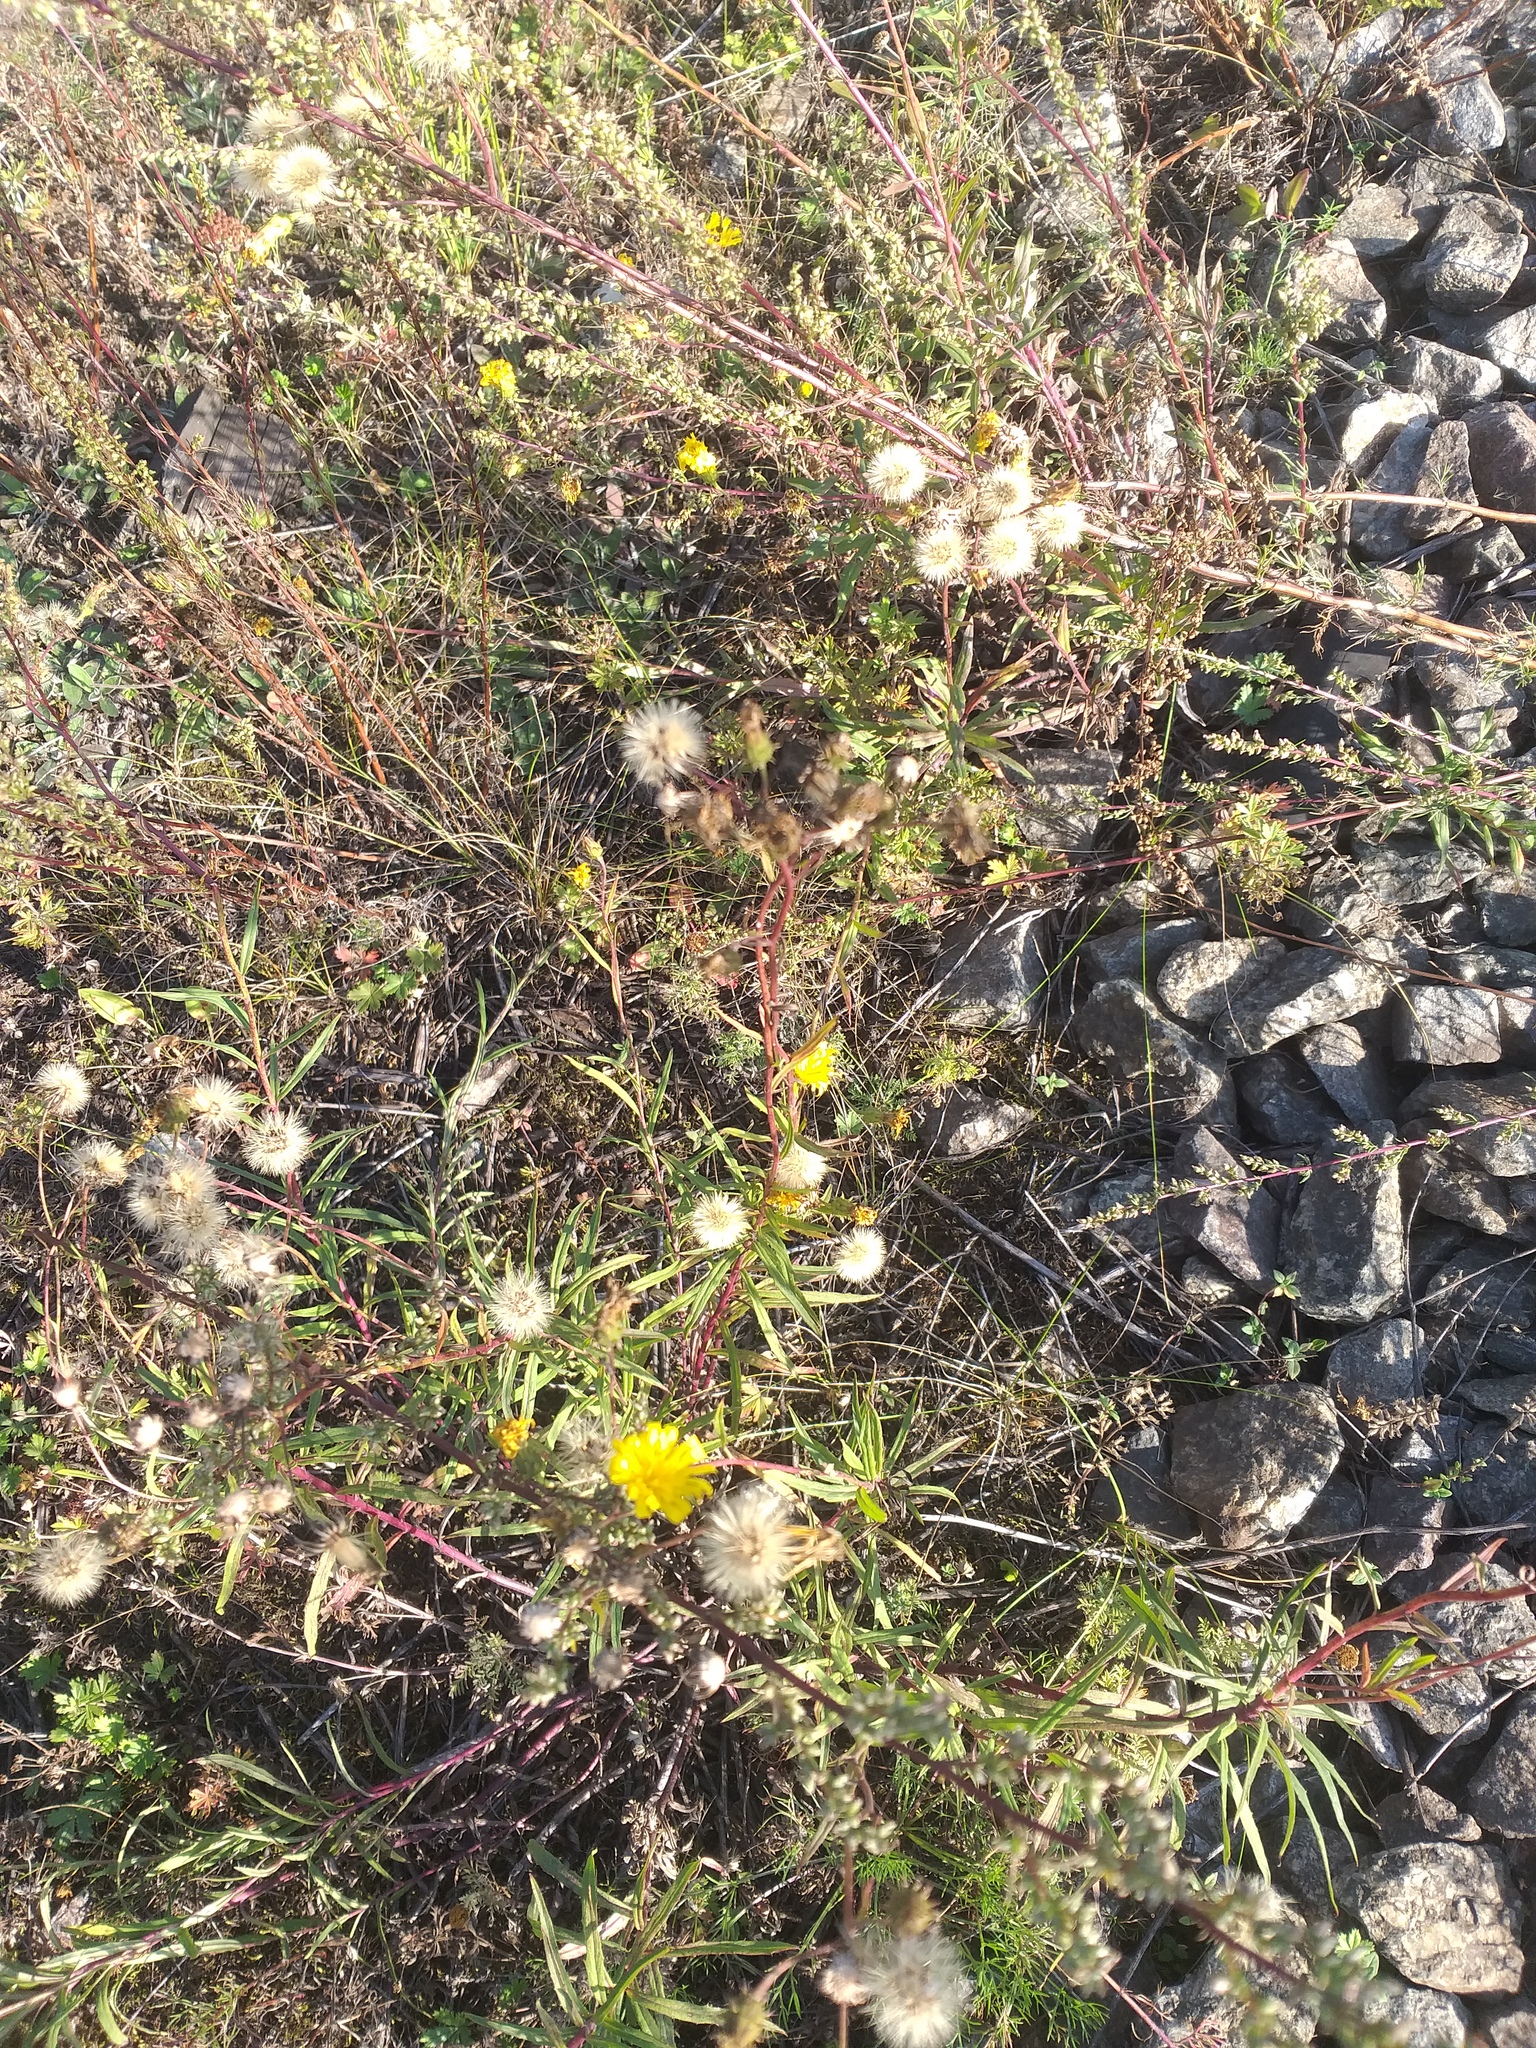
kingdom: Plantae
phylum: Tracheophyta
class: Magnoliopsida
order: Asterales
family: Asteraceae
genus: Hieracium
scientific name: Hieracium umbellatum
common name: Northern hawkweed
